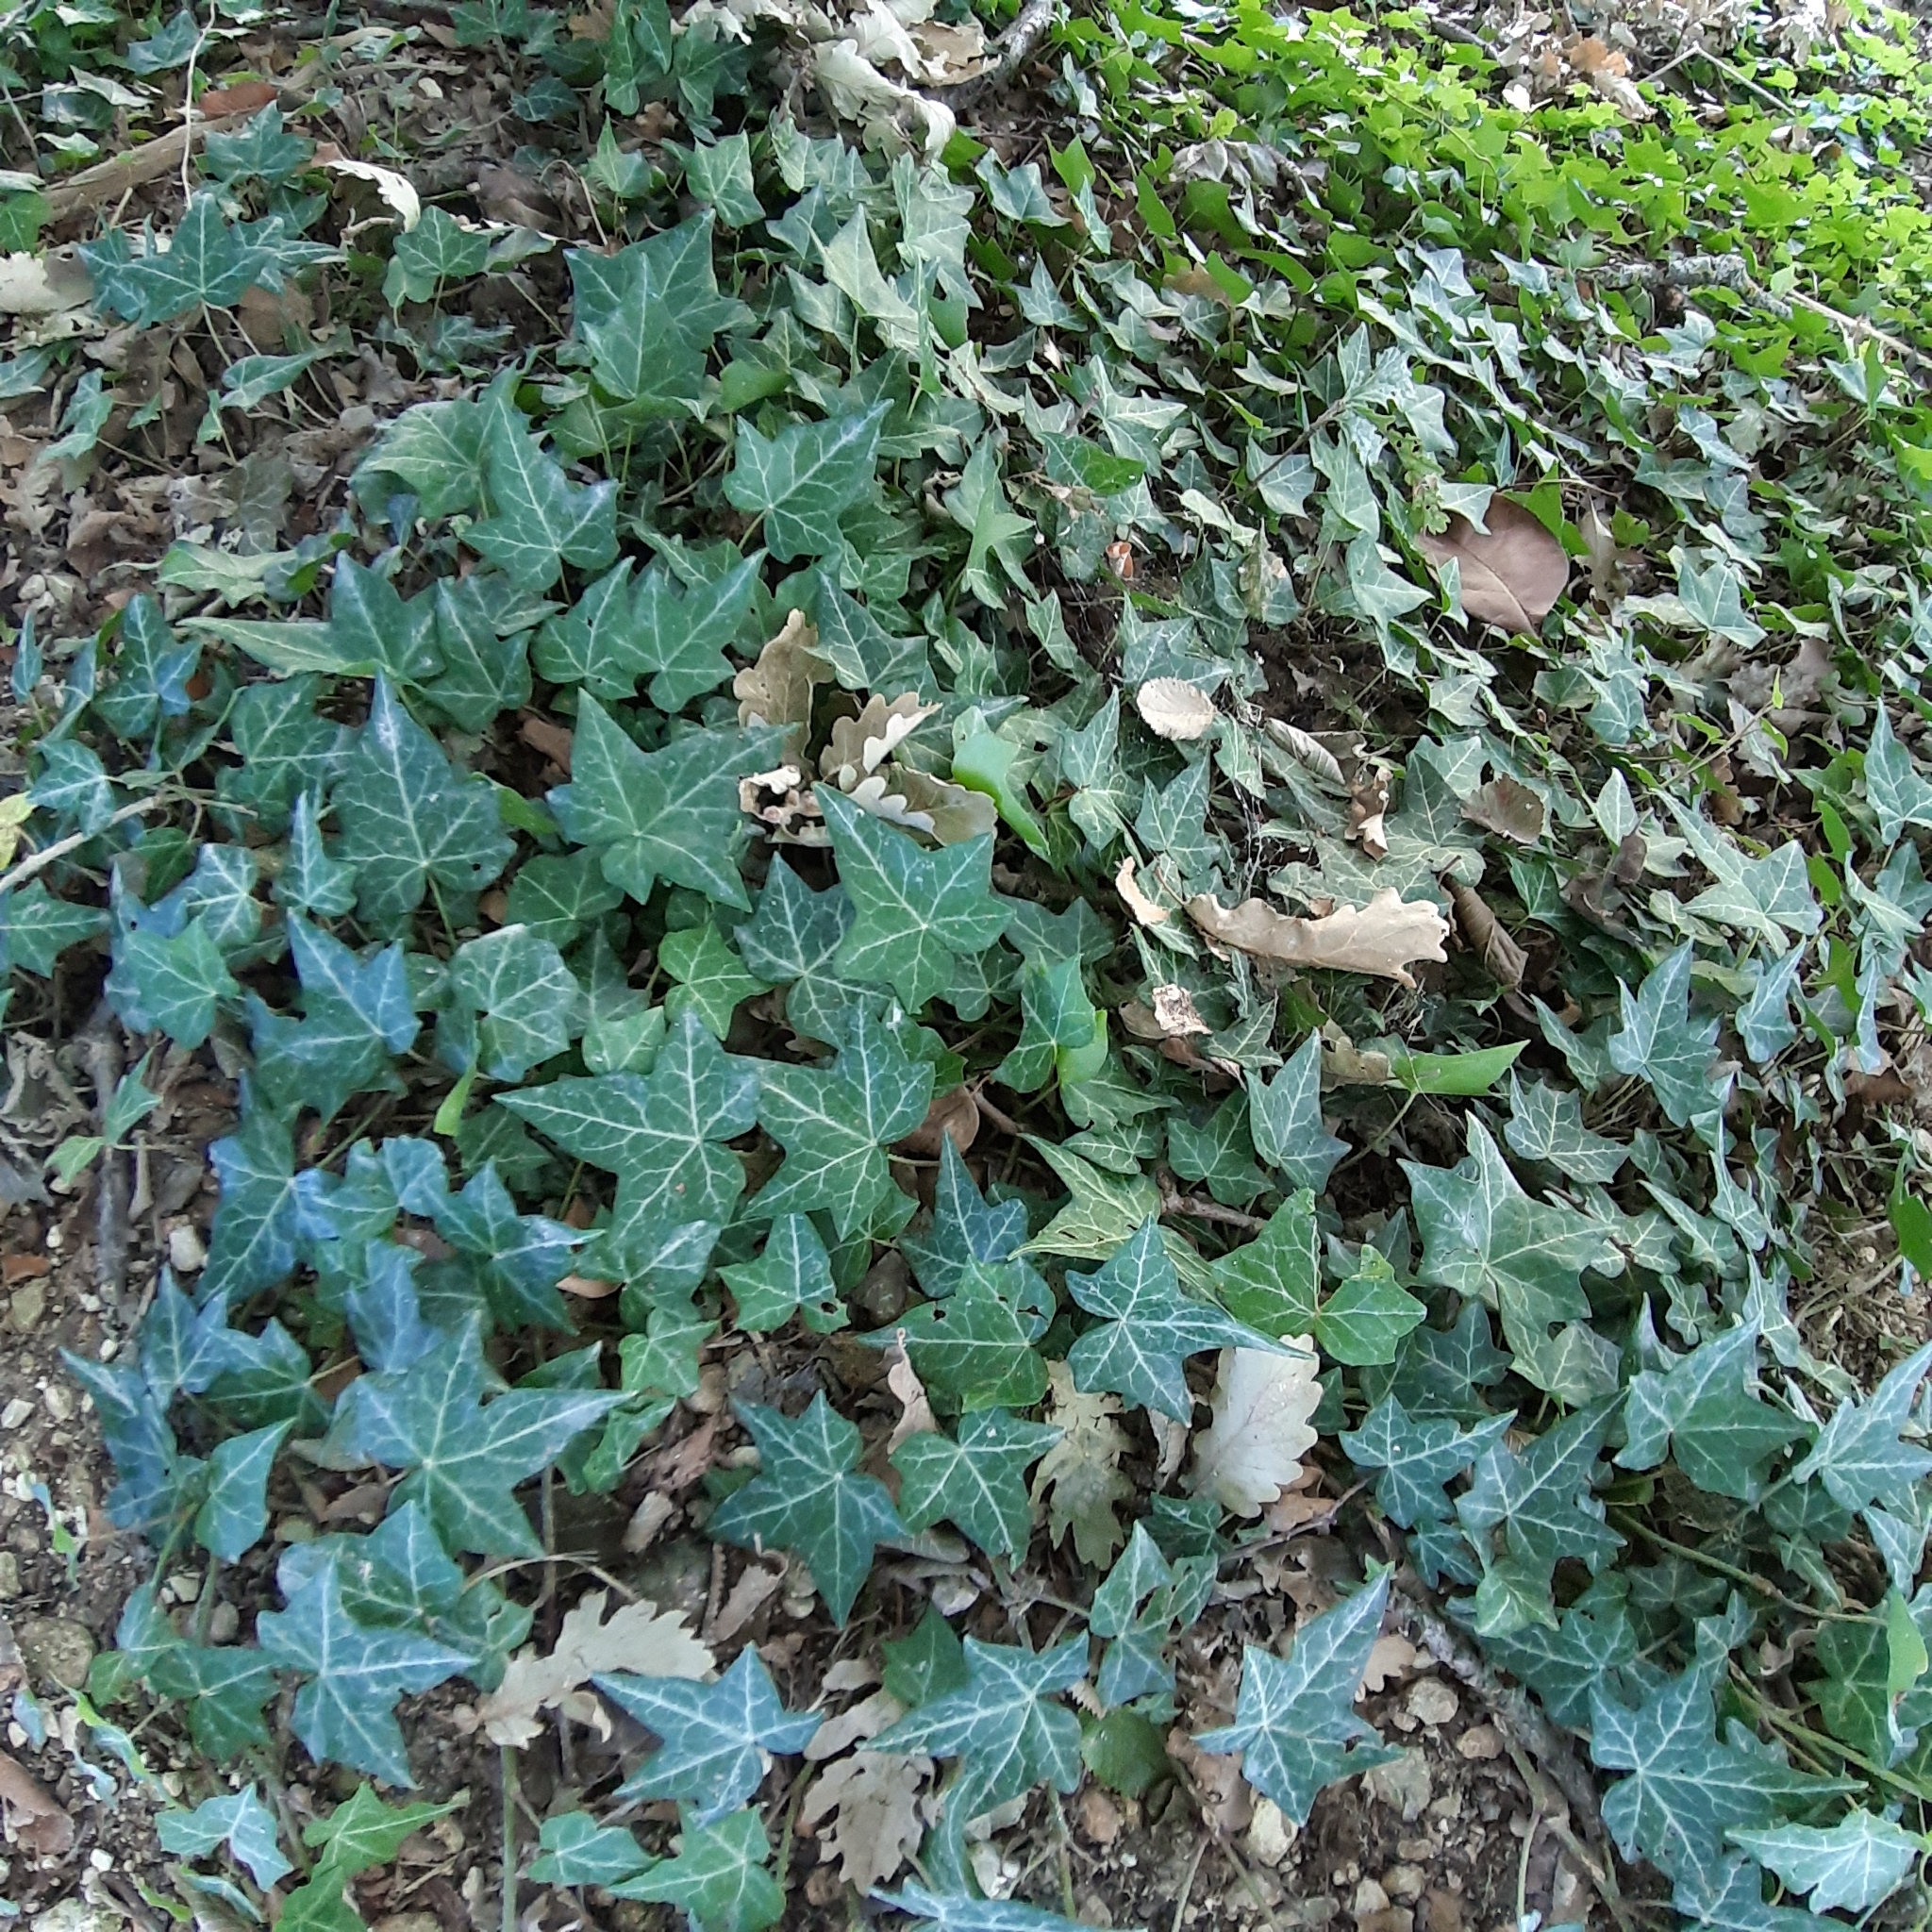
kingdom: Plantae
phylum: Tracheophyta
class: Magnoliopsida
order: Apiales
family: Araliaceae
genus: Hedera
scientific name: Hedera helix
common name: Ivy
